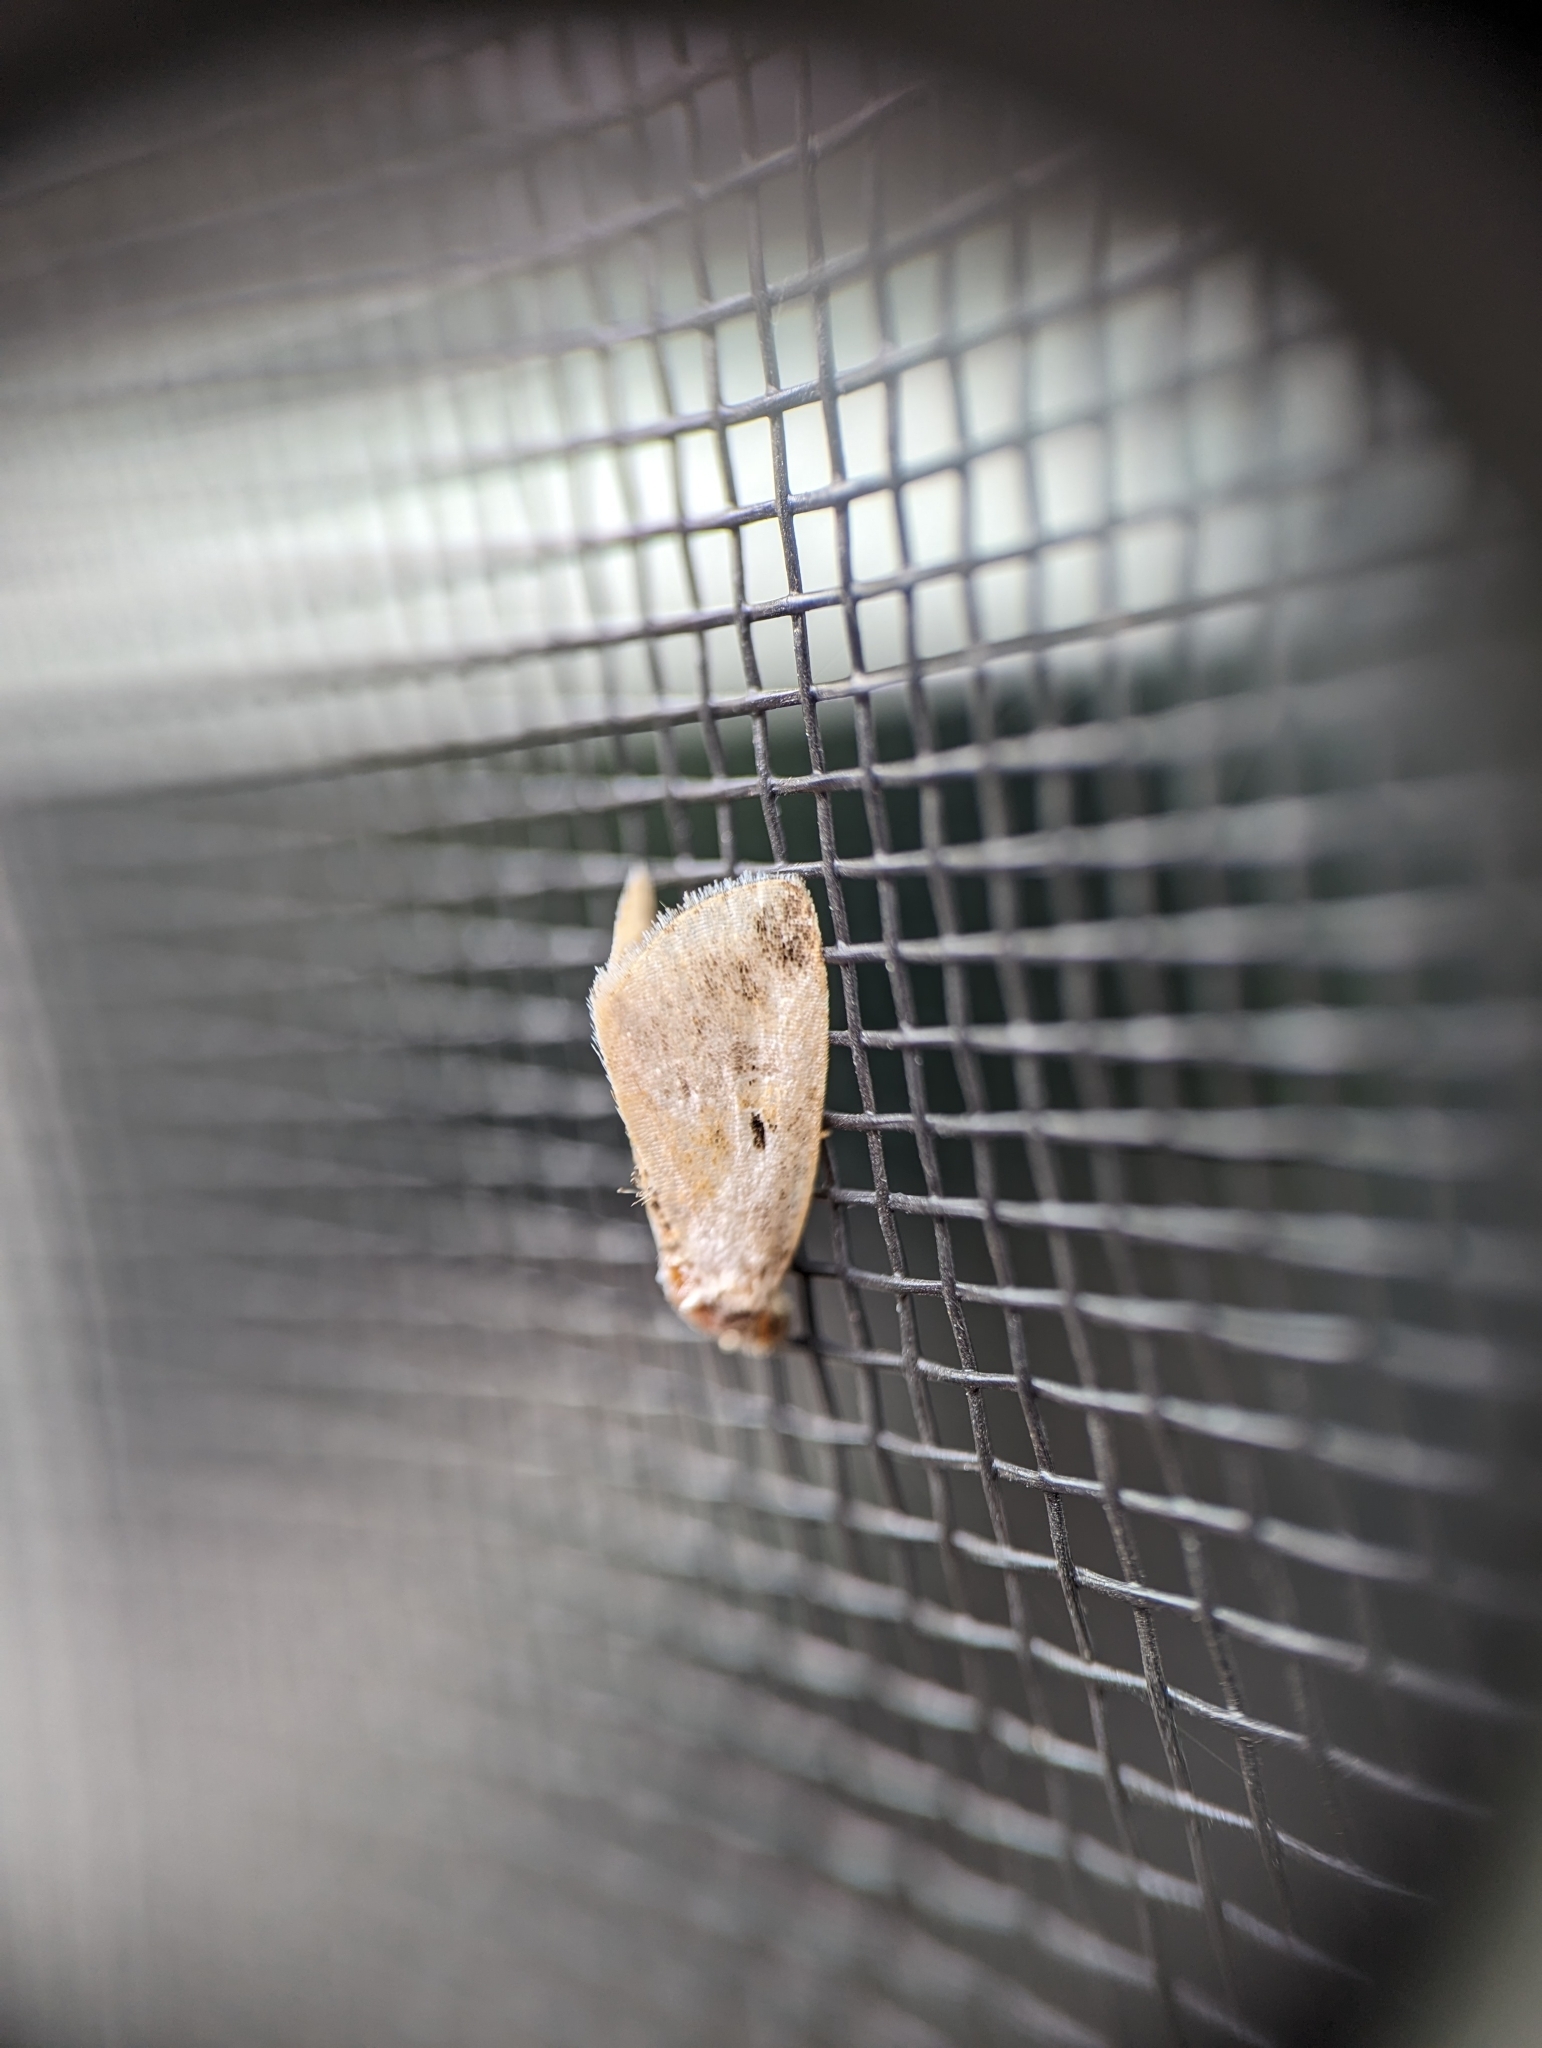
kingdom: Animalia
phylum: Arthropoda
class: Insecta
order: Lepidoptera
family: Noctuidae
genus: Maliattha
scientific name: Maliattha synochitis
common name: Black-dotted glyph
